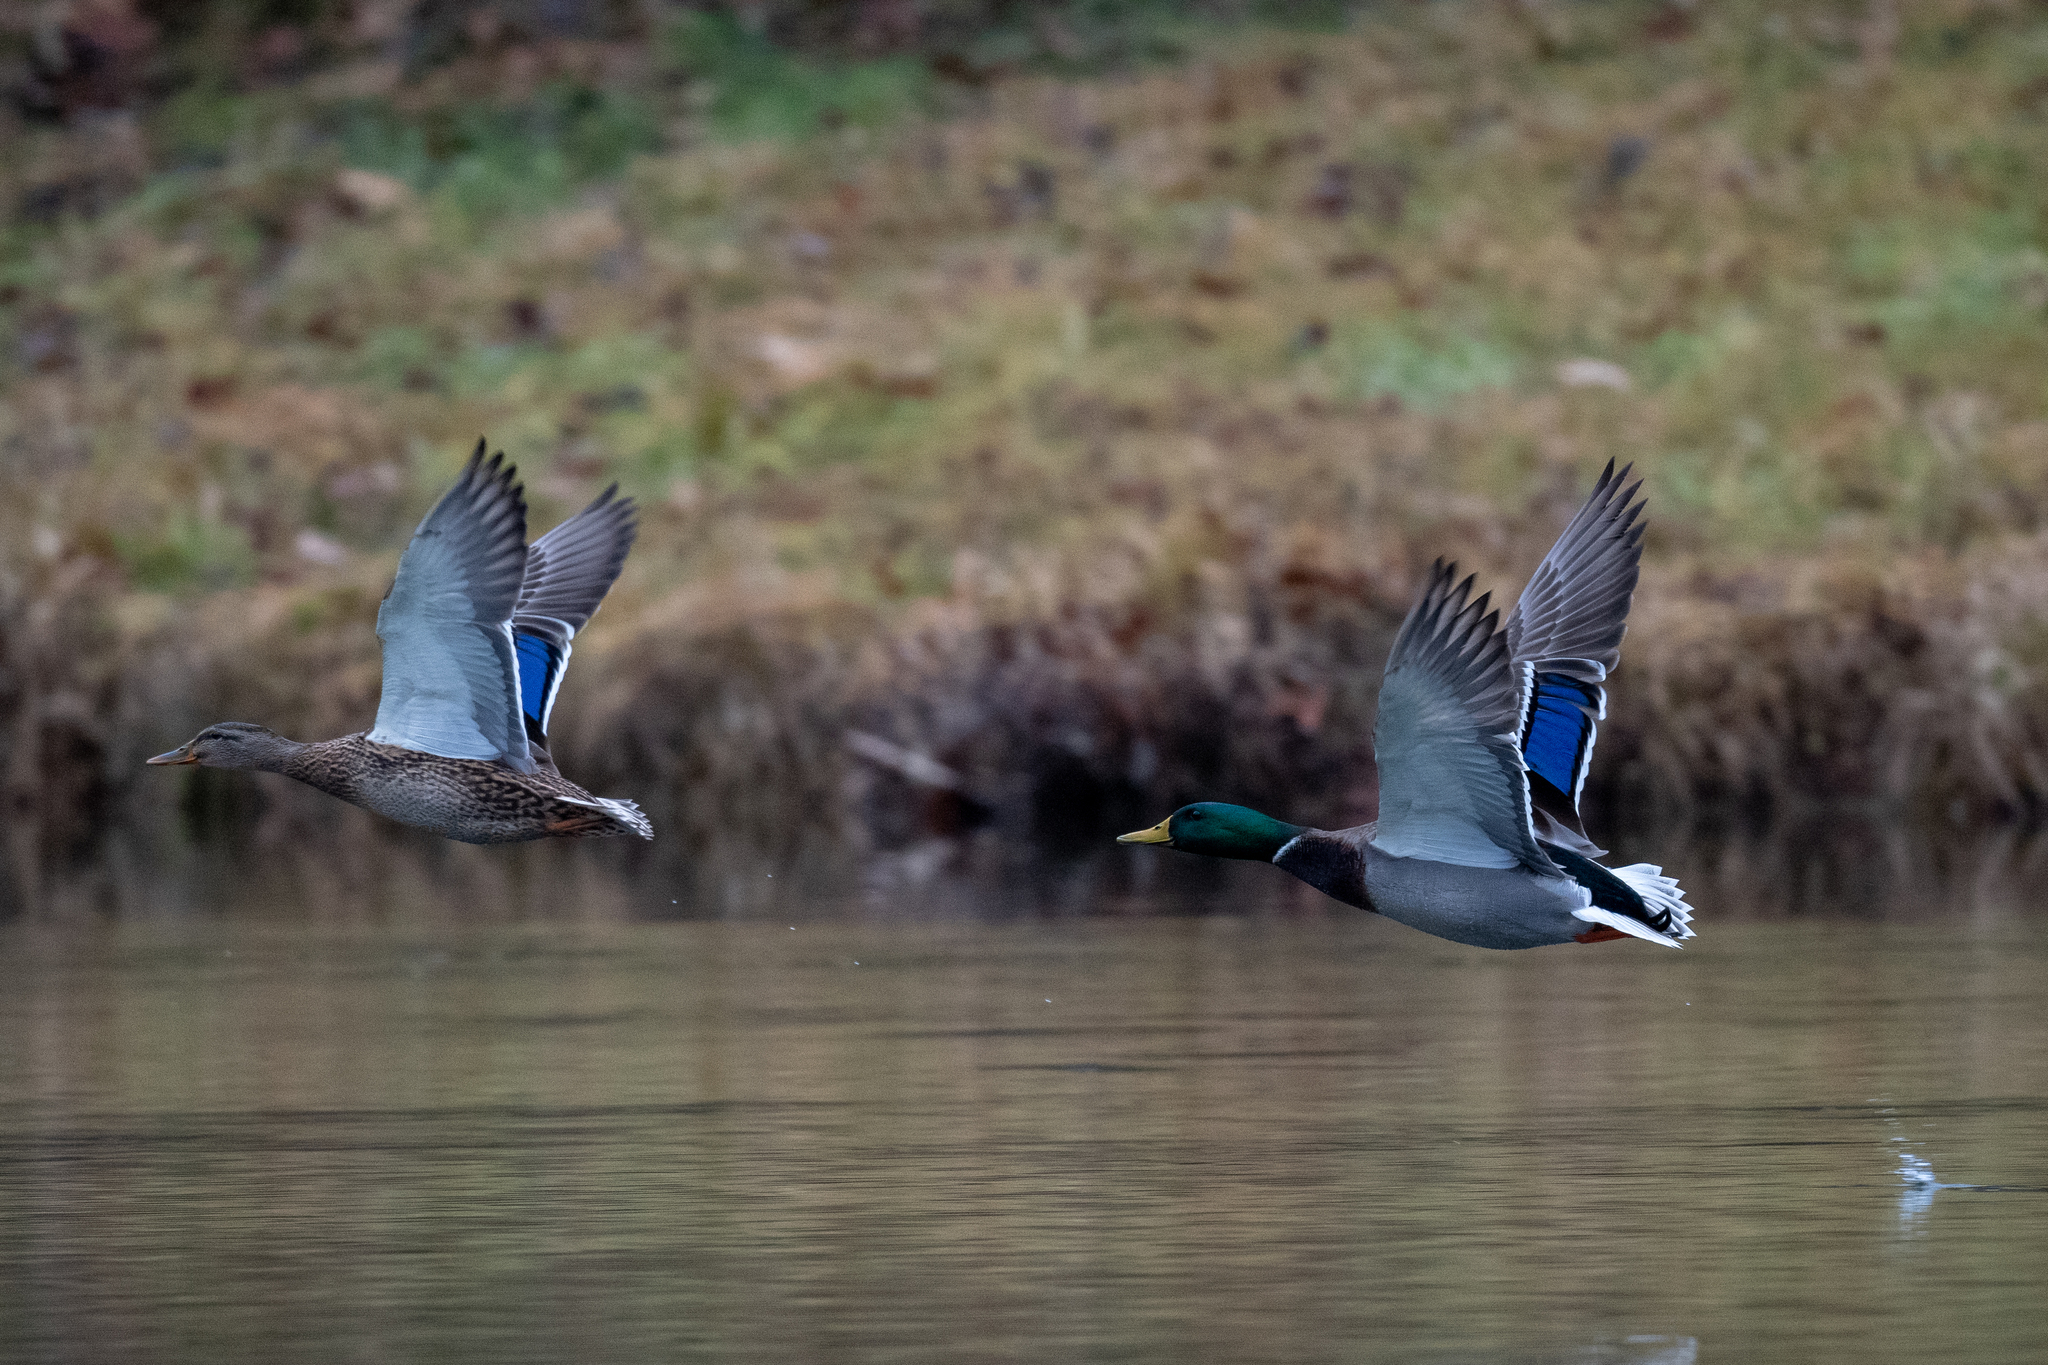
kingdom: Animalia
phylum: Chordata
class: Aves
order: Anseriformes
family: Anatidae
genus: Anas
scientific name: Anas platyrhynchos
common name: Mallard
